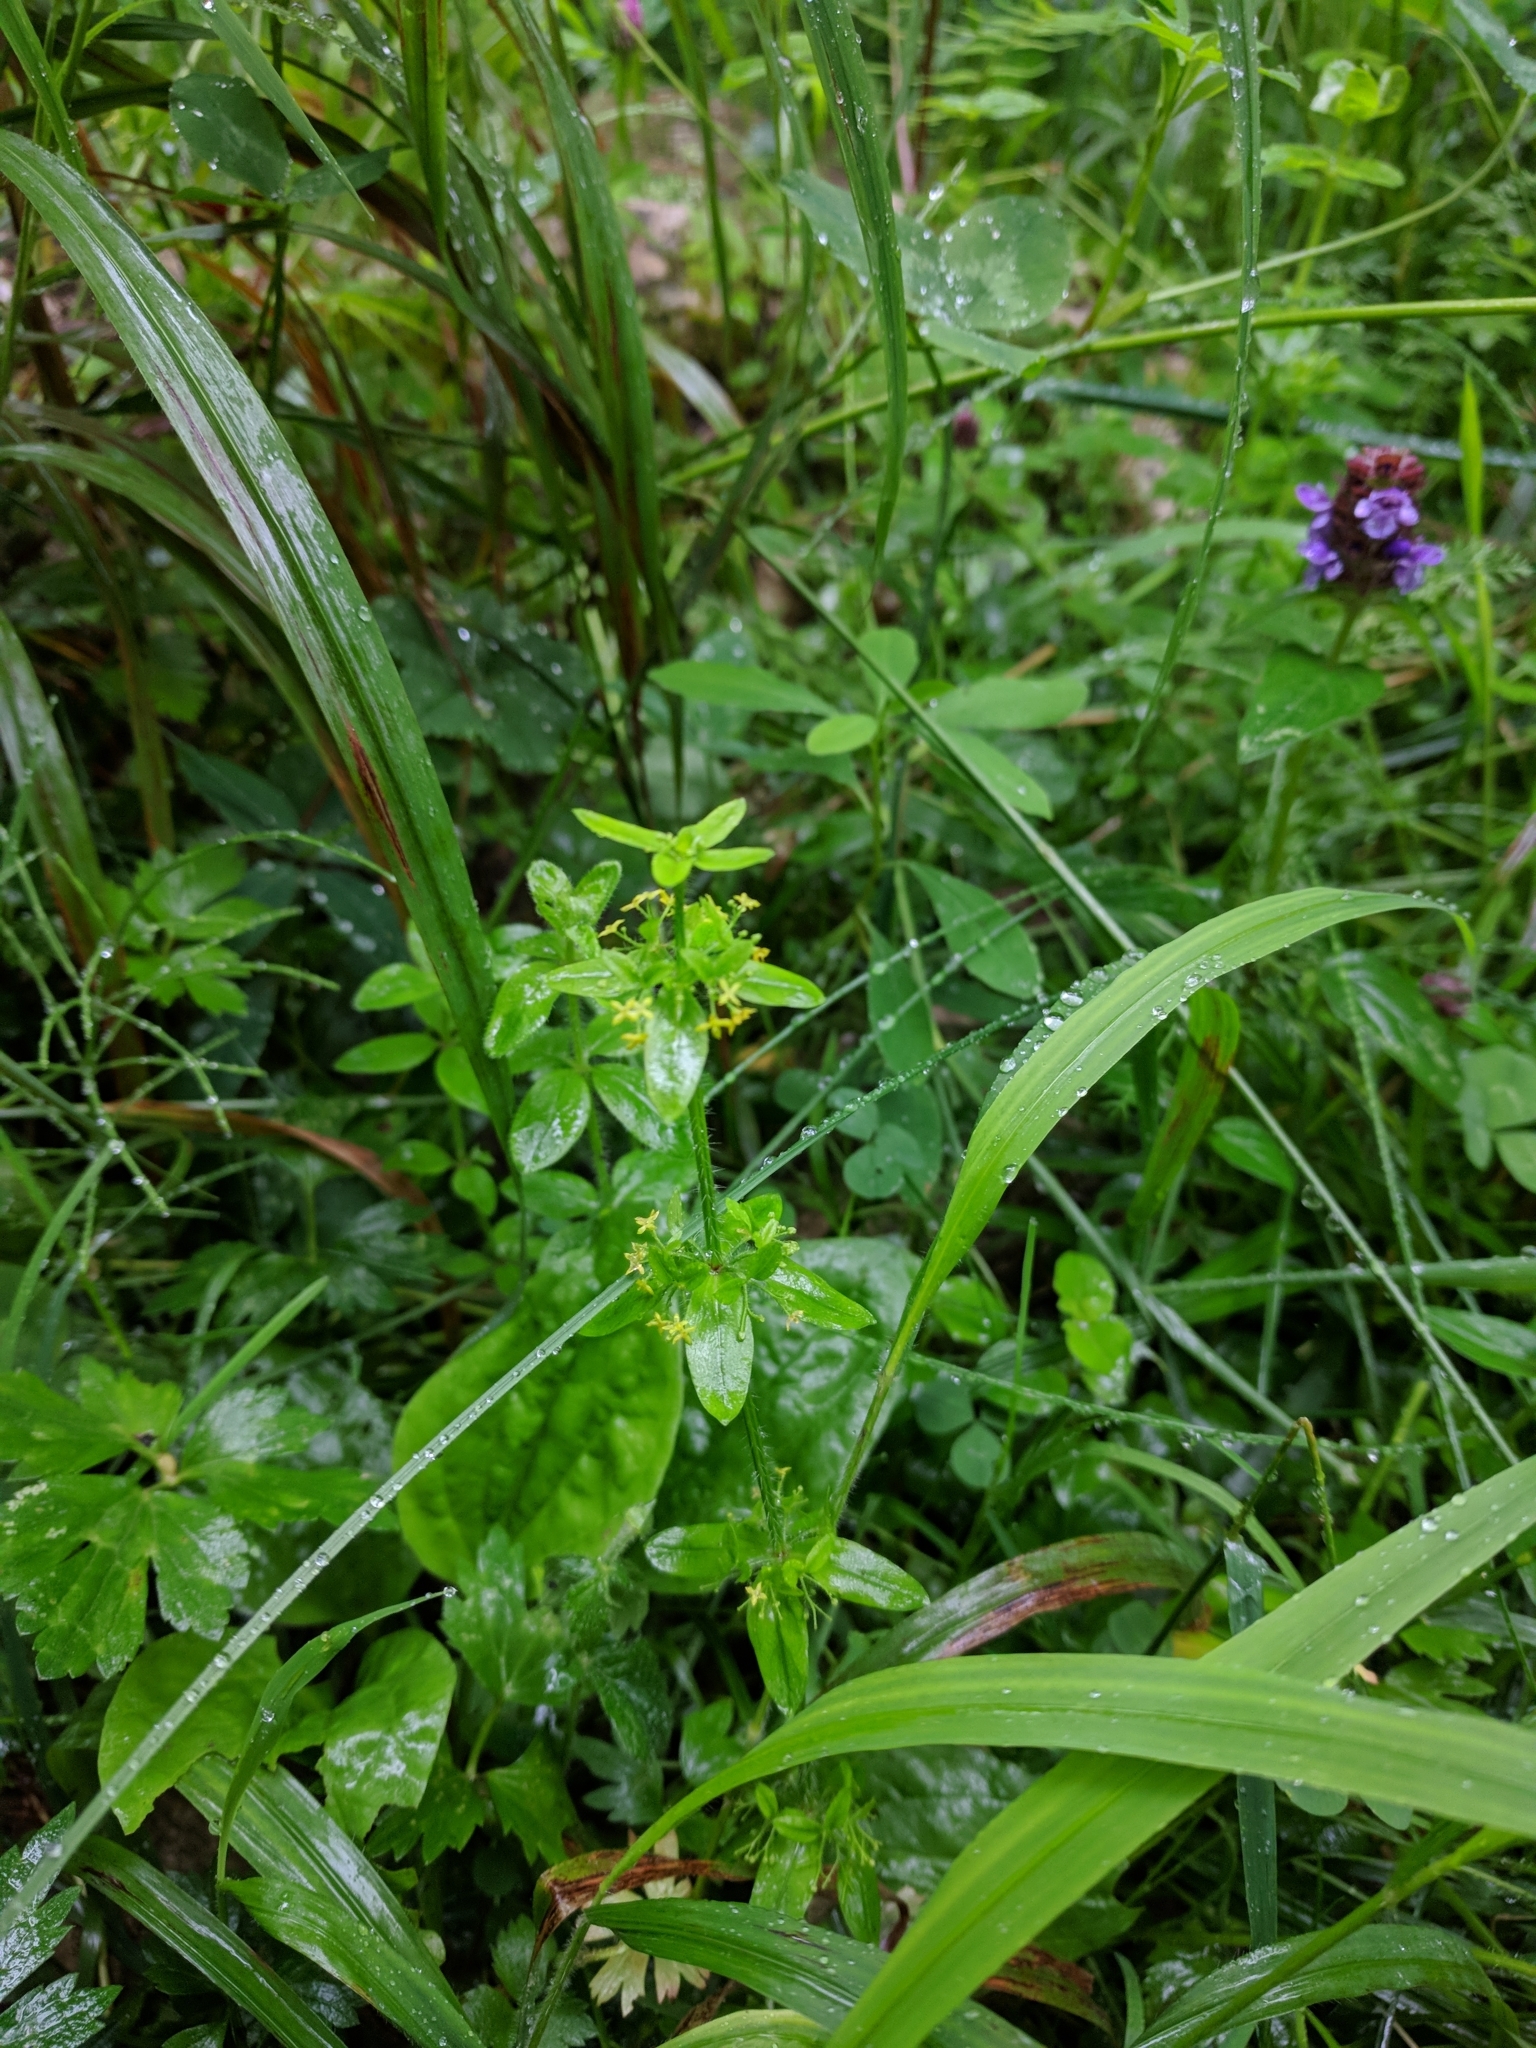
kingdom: Plantae
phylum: Tracheophyta
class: Magnoliopsida
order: Gentianales
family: Rubiaceae
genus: Cruciata
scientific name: Cruciata laevipes
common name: Crosswort
